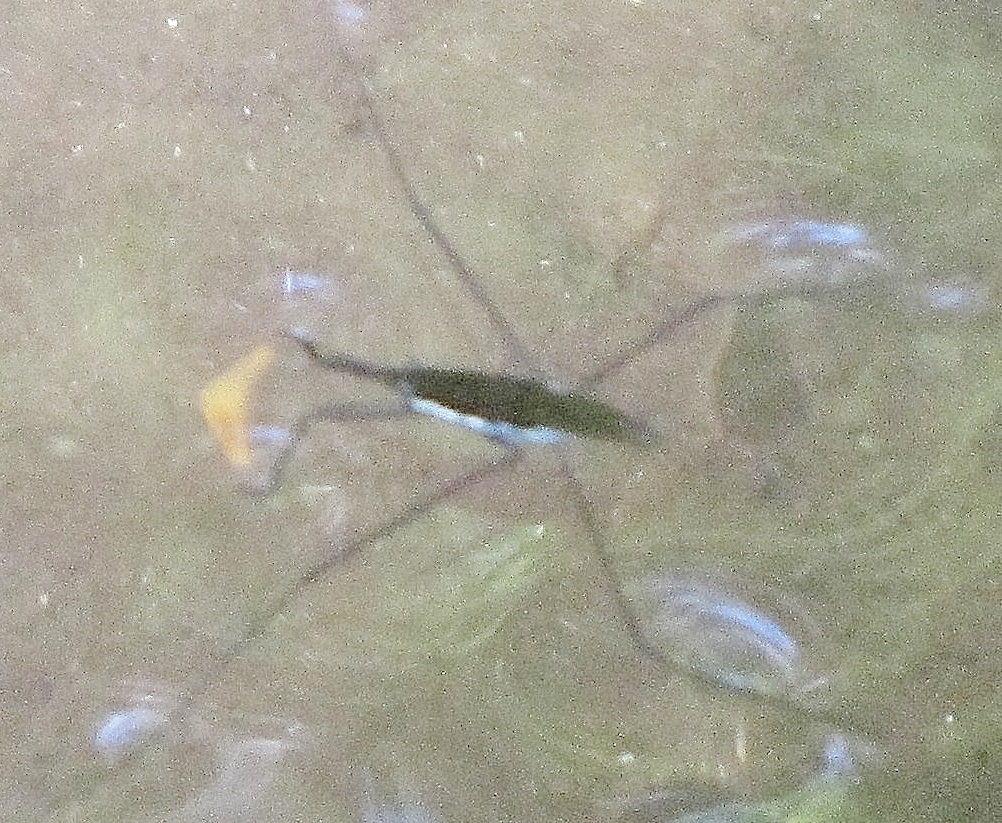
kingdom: Animalia
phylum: Arthropoda
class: Insecta
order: Hemiptera
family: Gerridae
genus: Aquarius
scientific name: Aquarius
